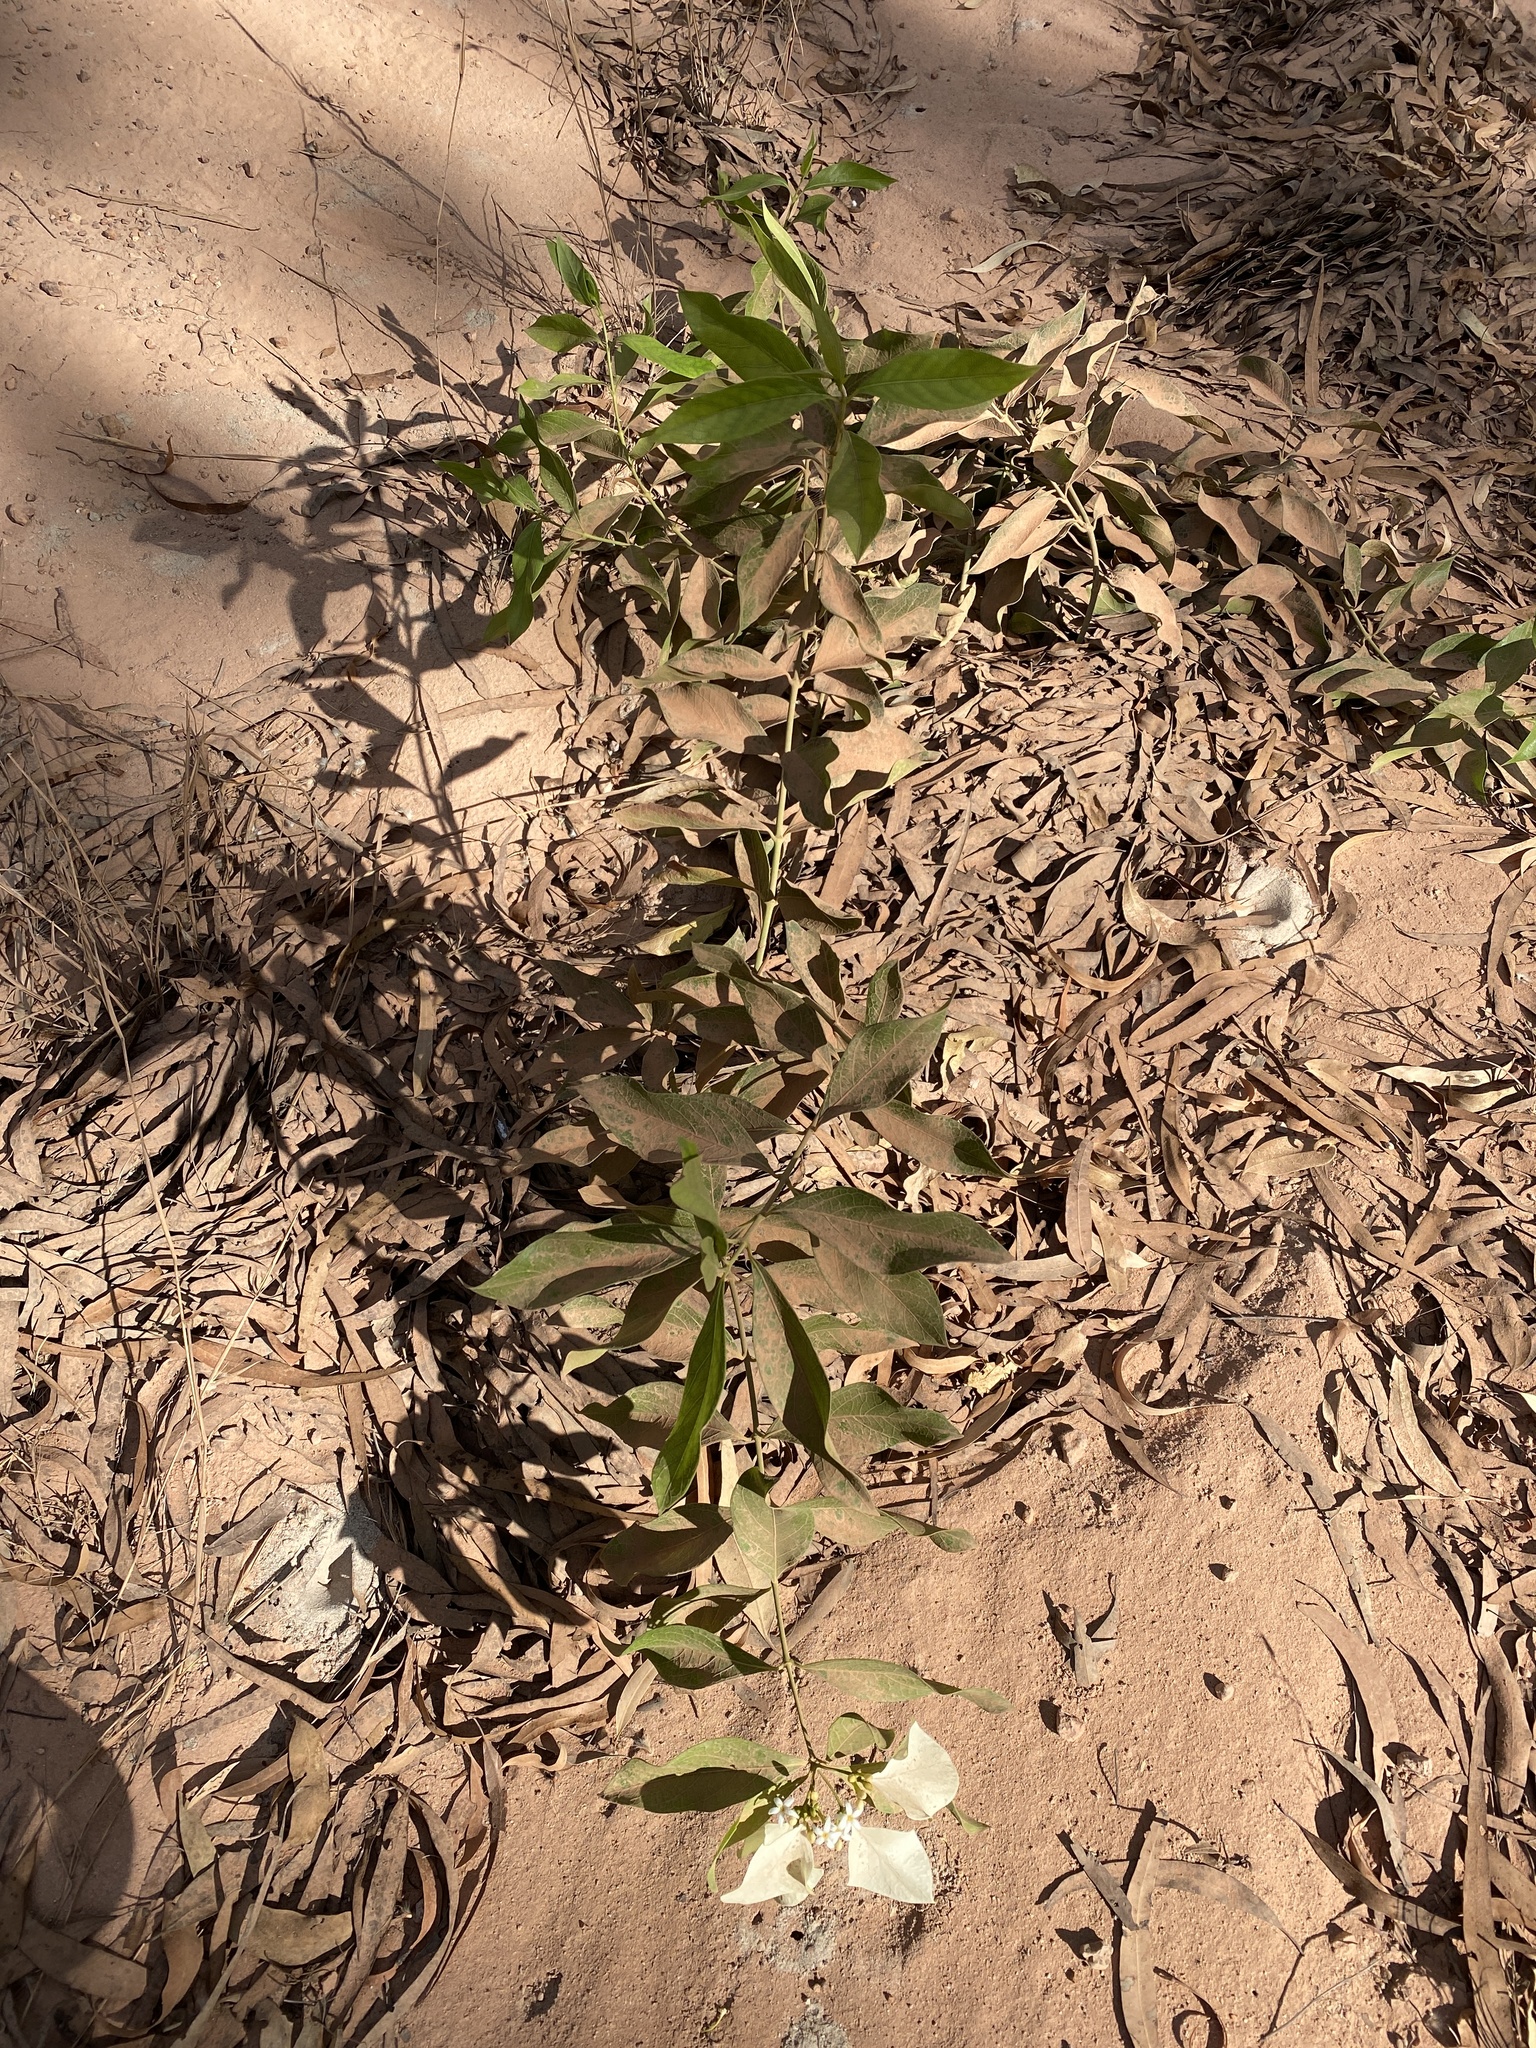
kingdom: Plantae
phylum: Tracheophyta
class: Magnoliopsida
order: Gentianales
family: Rubiaceae
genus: Coelospermum
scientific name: Coelospermum decipiens
